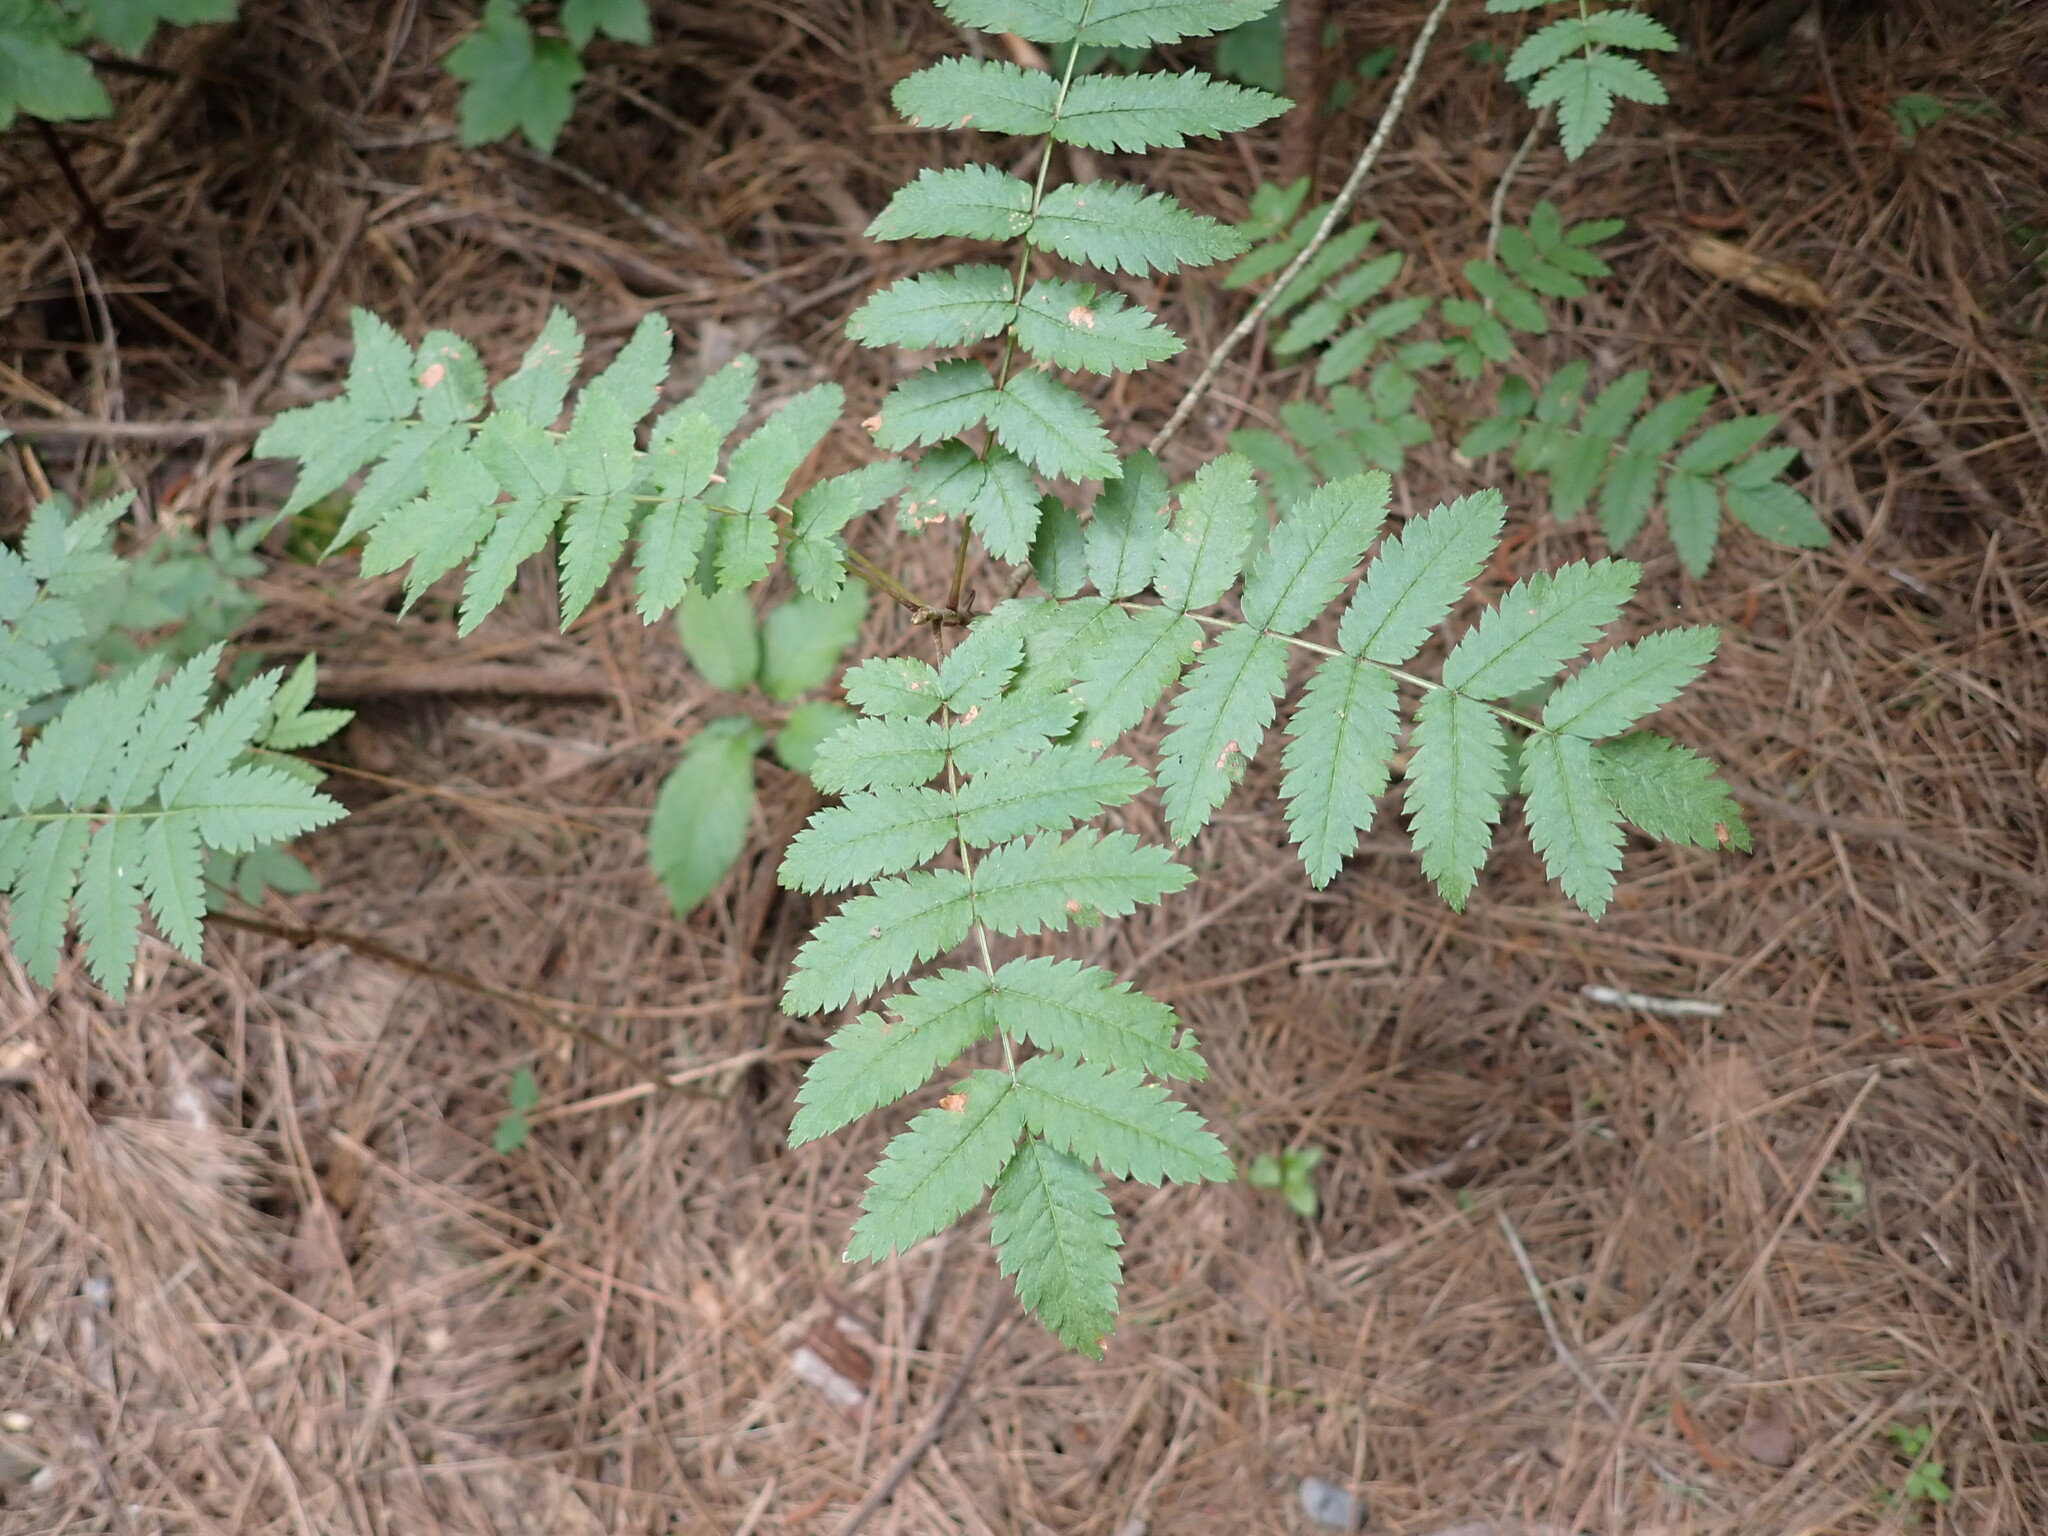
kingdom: Plantae
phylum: Tracheophyta
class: Magnoliopsida
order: Rosales
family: Rosaceae
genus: Sorbus
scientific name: Sorbus aucuparia
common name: Rowan
